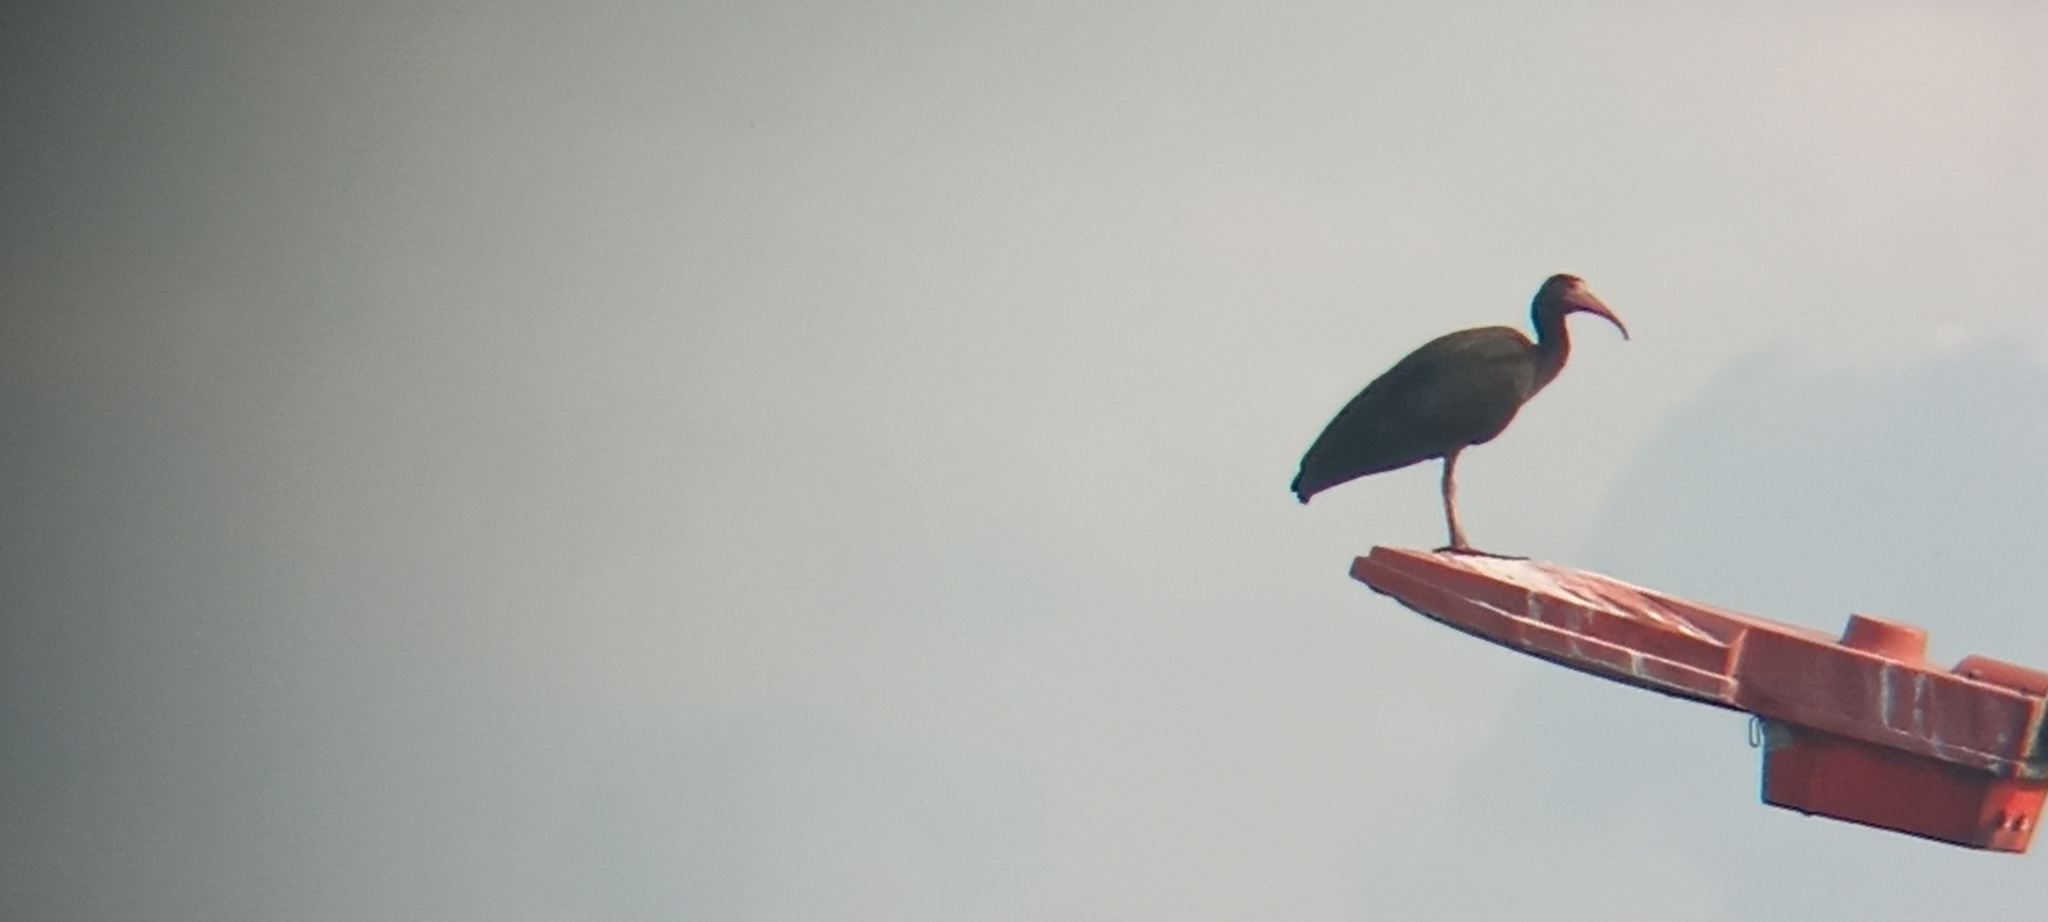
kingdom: Animalia
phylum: Chordata
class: Aves
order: Pelecaniformes
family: Threskiornithidae
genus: Phimosus
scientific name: Phimosus infuscatus
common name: Bare-faced ibis
